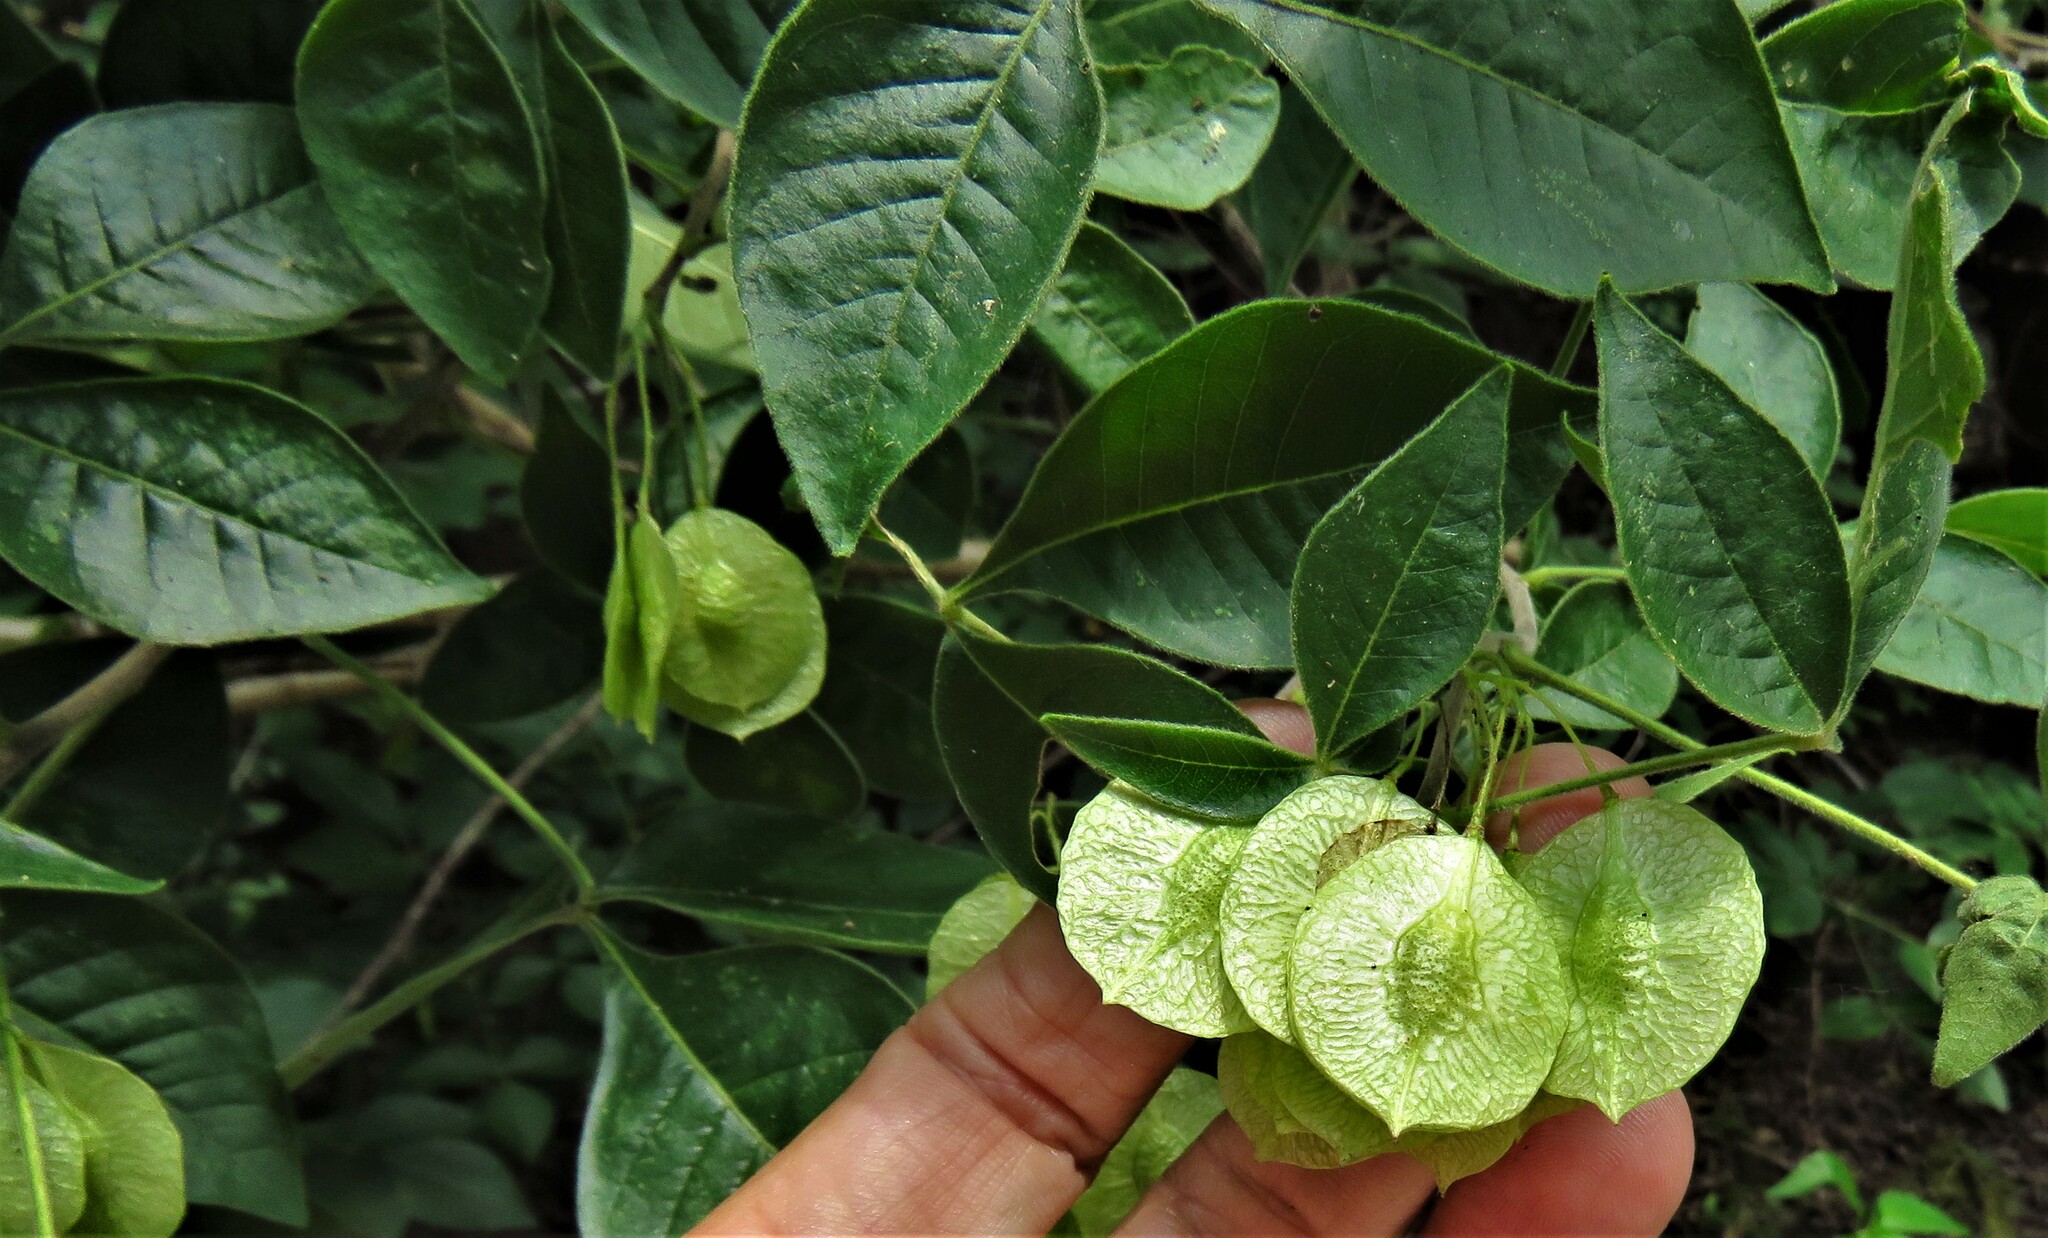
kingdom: Plantae
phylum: Tracheophyta
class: Magnoliopsida
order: Sapindales
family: Rutaceae
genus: Ptelea
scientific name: Ptelea trifoliata
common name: Common hop-tree
